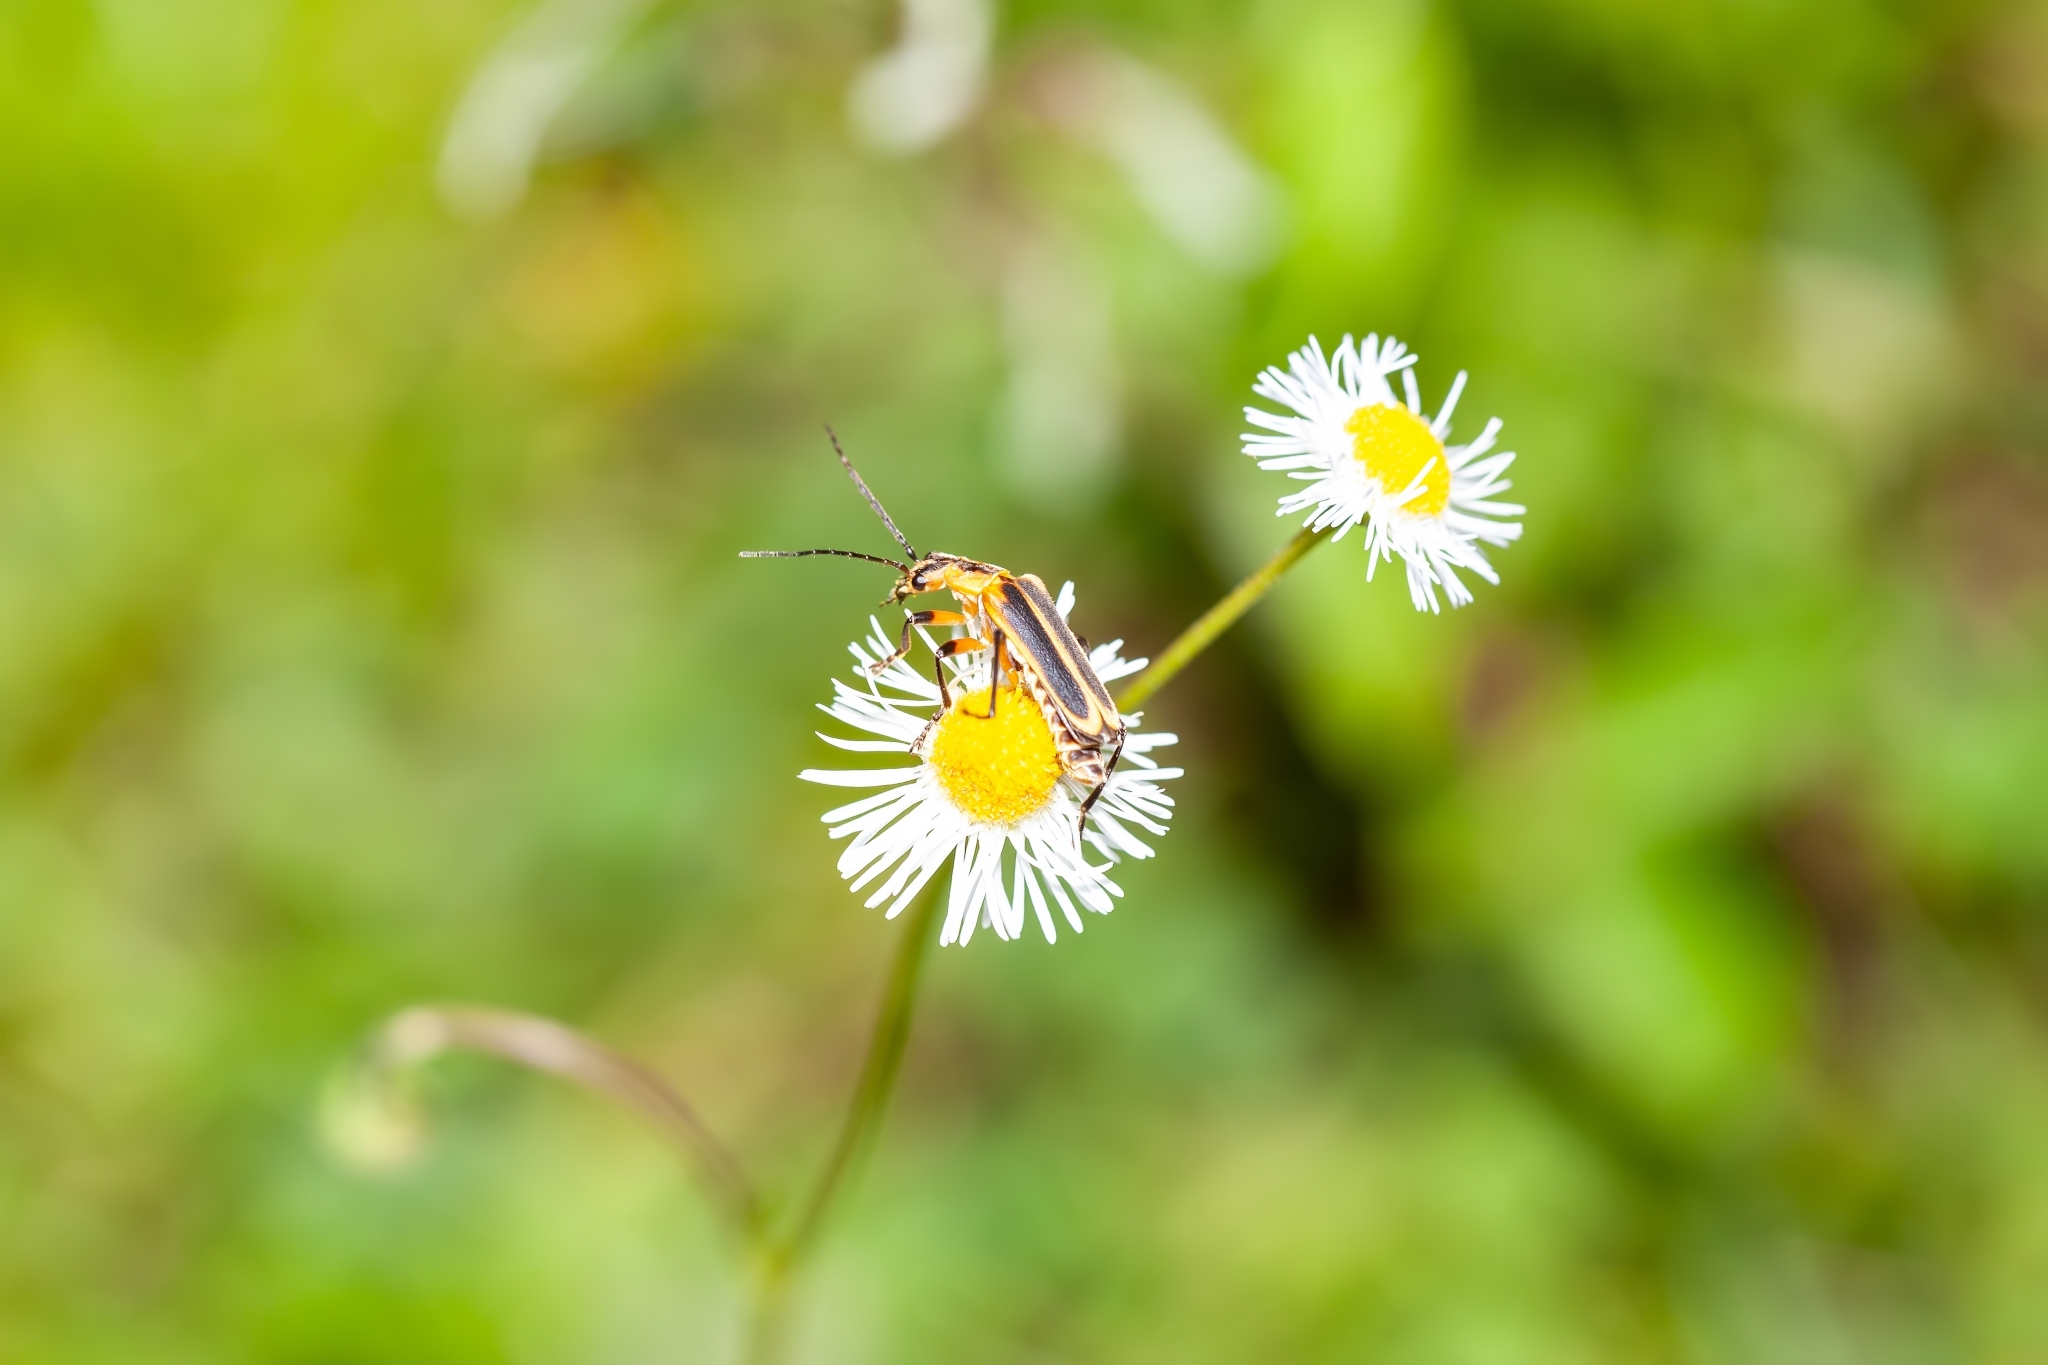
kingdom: Animalia
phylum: Arthropoda
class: Insecta
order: Coleoptera
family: Cantharidae
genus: Chauliognathus
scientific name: Chauliognathus marginatus
